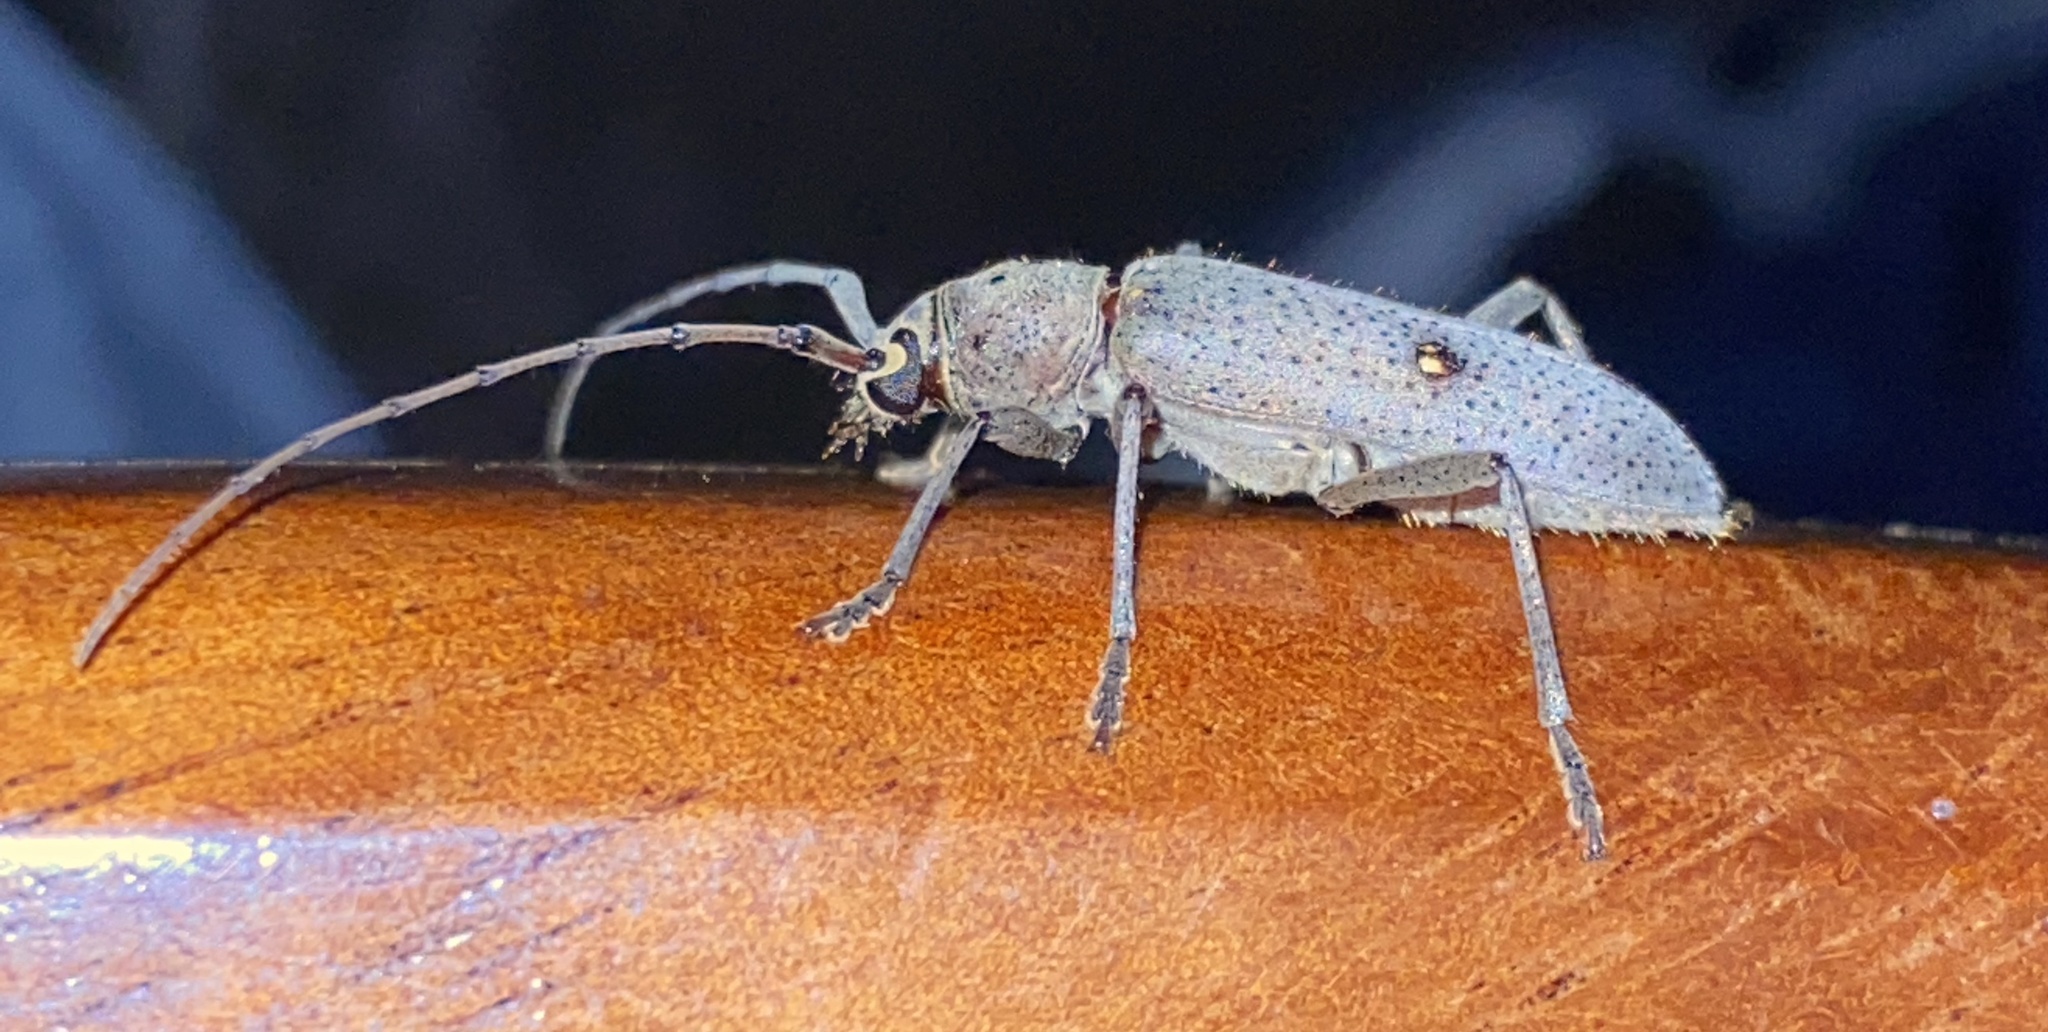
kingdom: Animalia
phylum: Arthropoda
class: Insecta
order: Coleoptera
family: Cerambycidae
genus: Eburia
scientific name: Eburia porulosa
